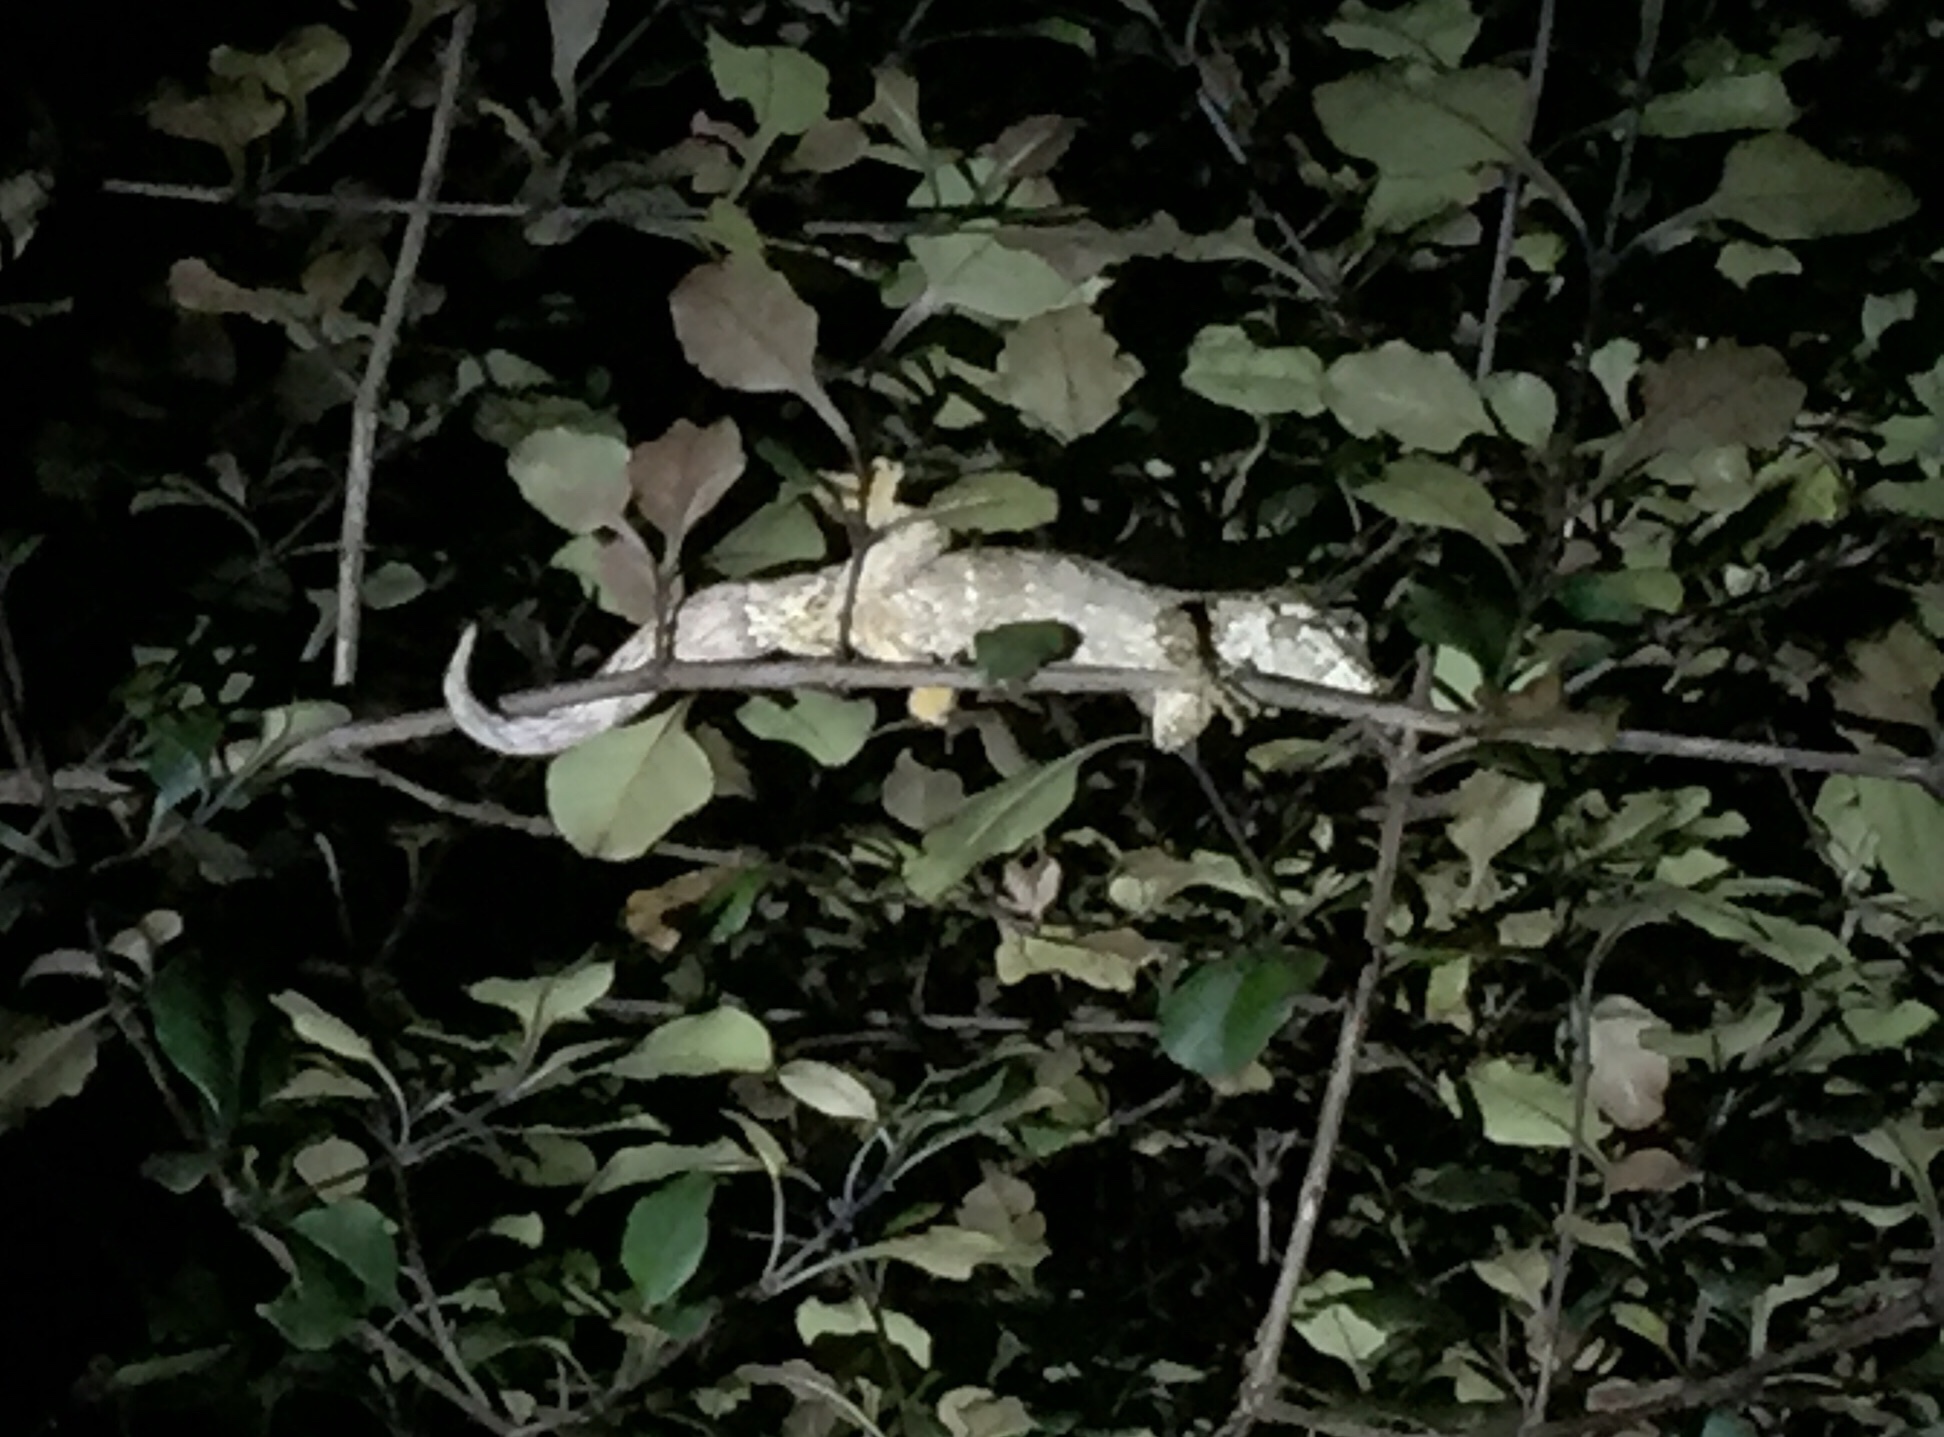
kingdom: Animalia
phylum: Chordata
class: Squamata
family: Diplodactylidae
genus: Mokopirirakau
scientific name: Mokopirirakau granulatus
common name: Forest gecko
